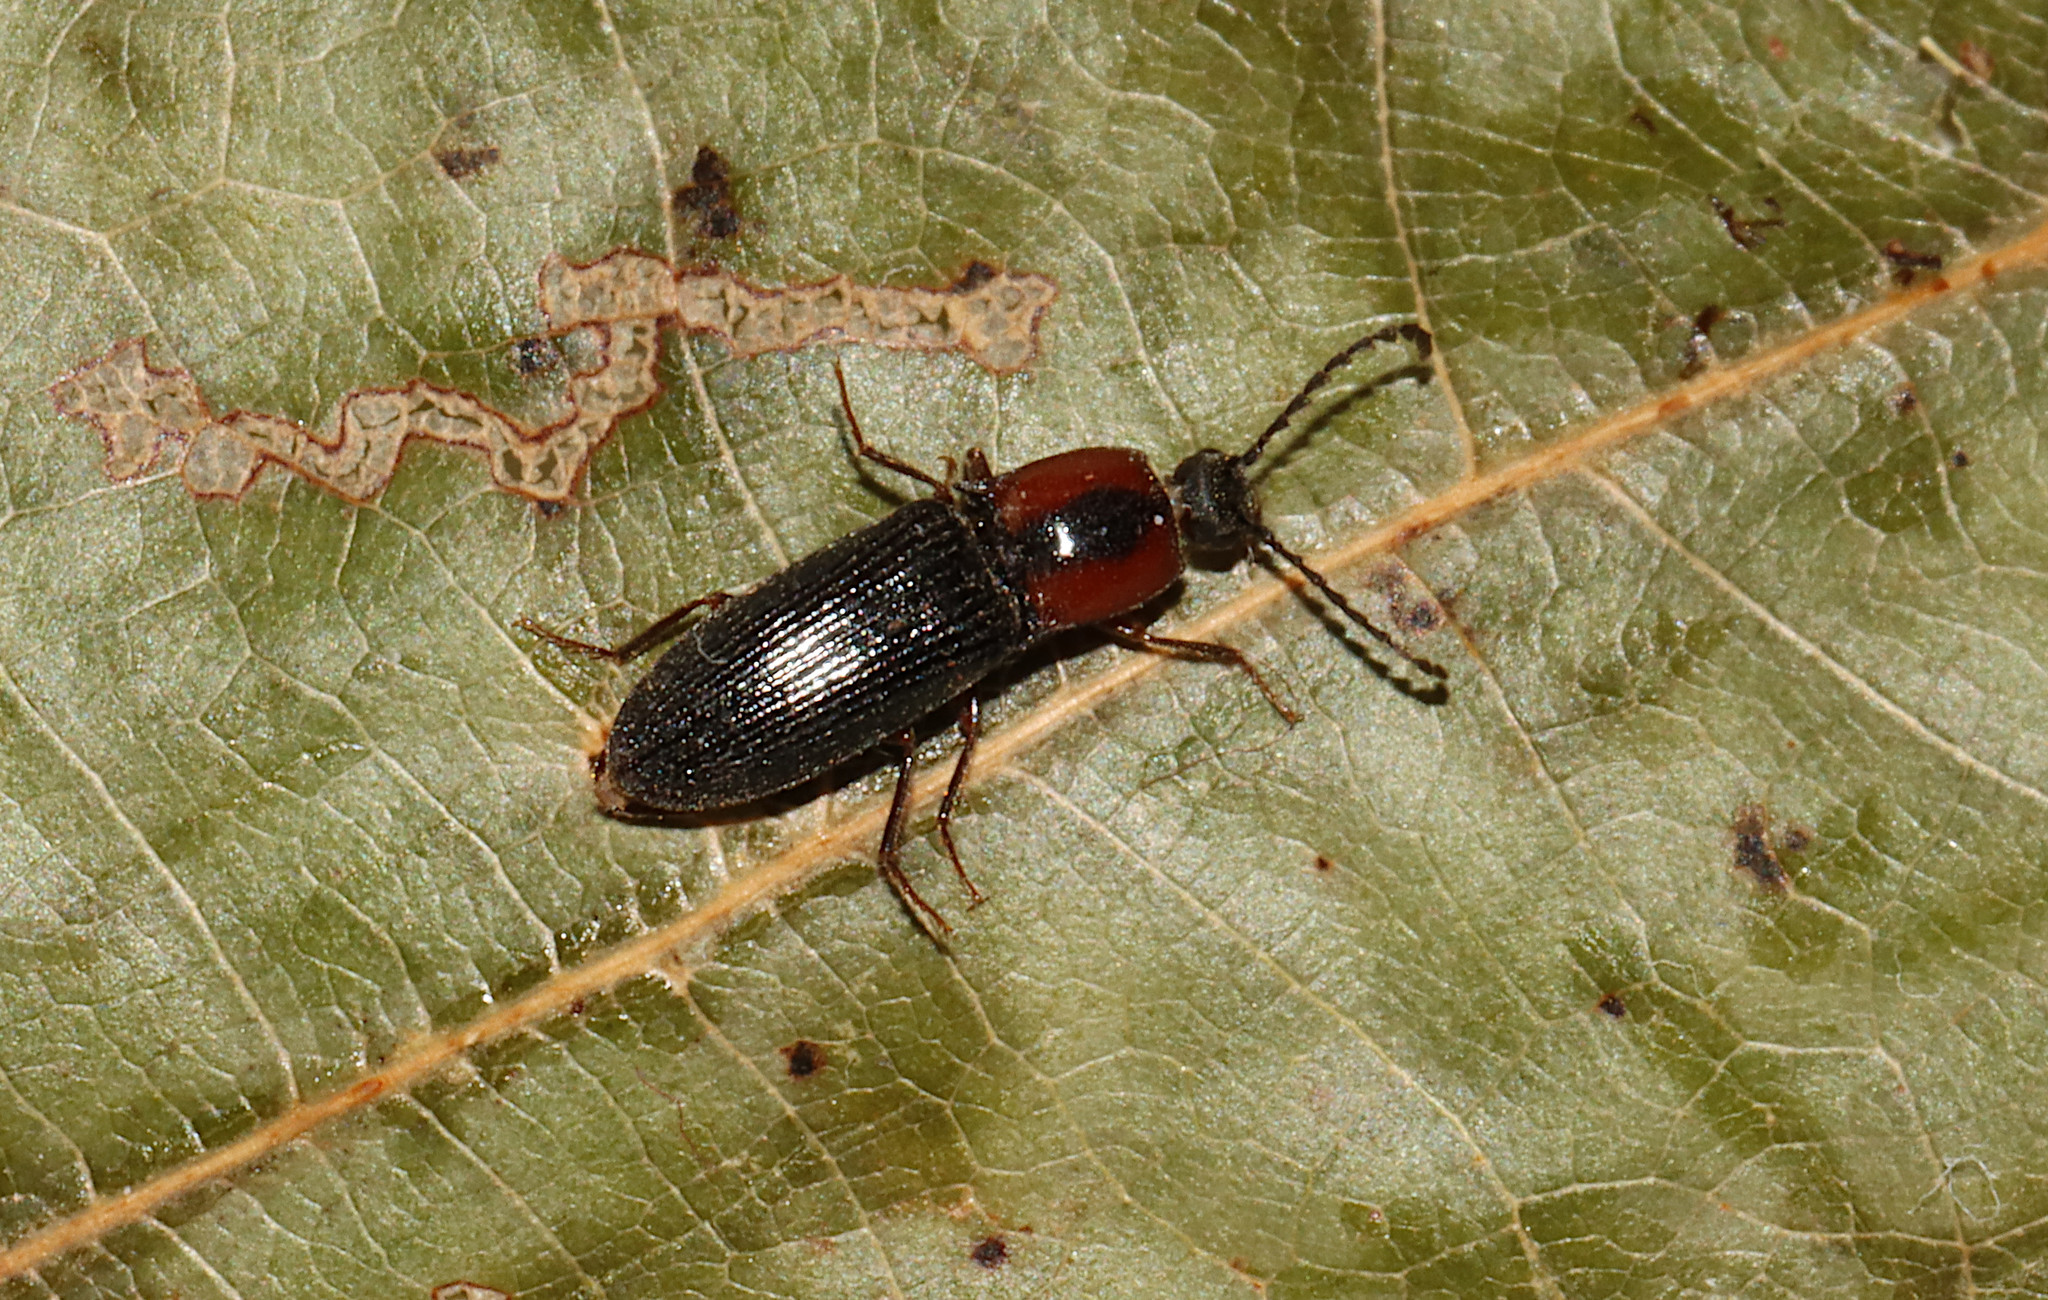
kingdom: Animalia
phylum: Arthropoda
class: Insecta
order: Coleoptera
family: Curculionidae
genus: Brownia
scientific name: Brownia
